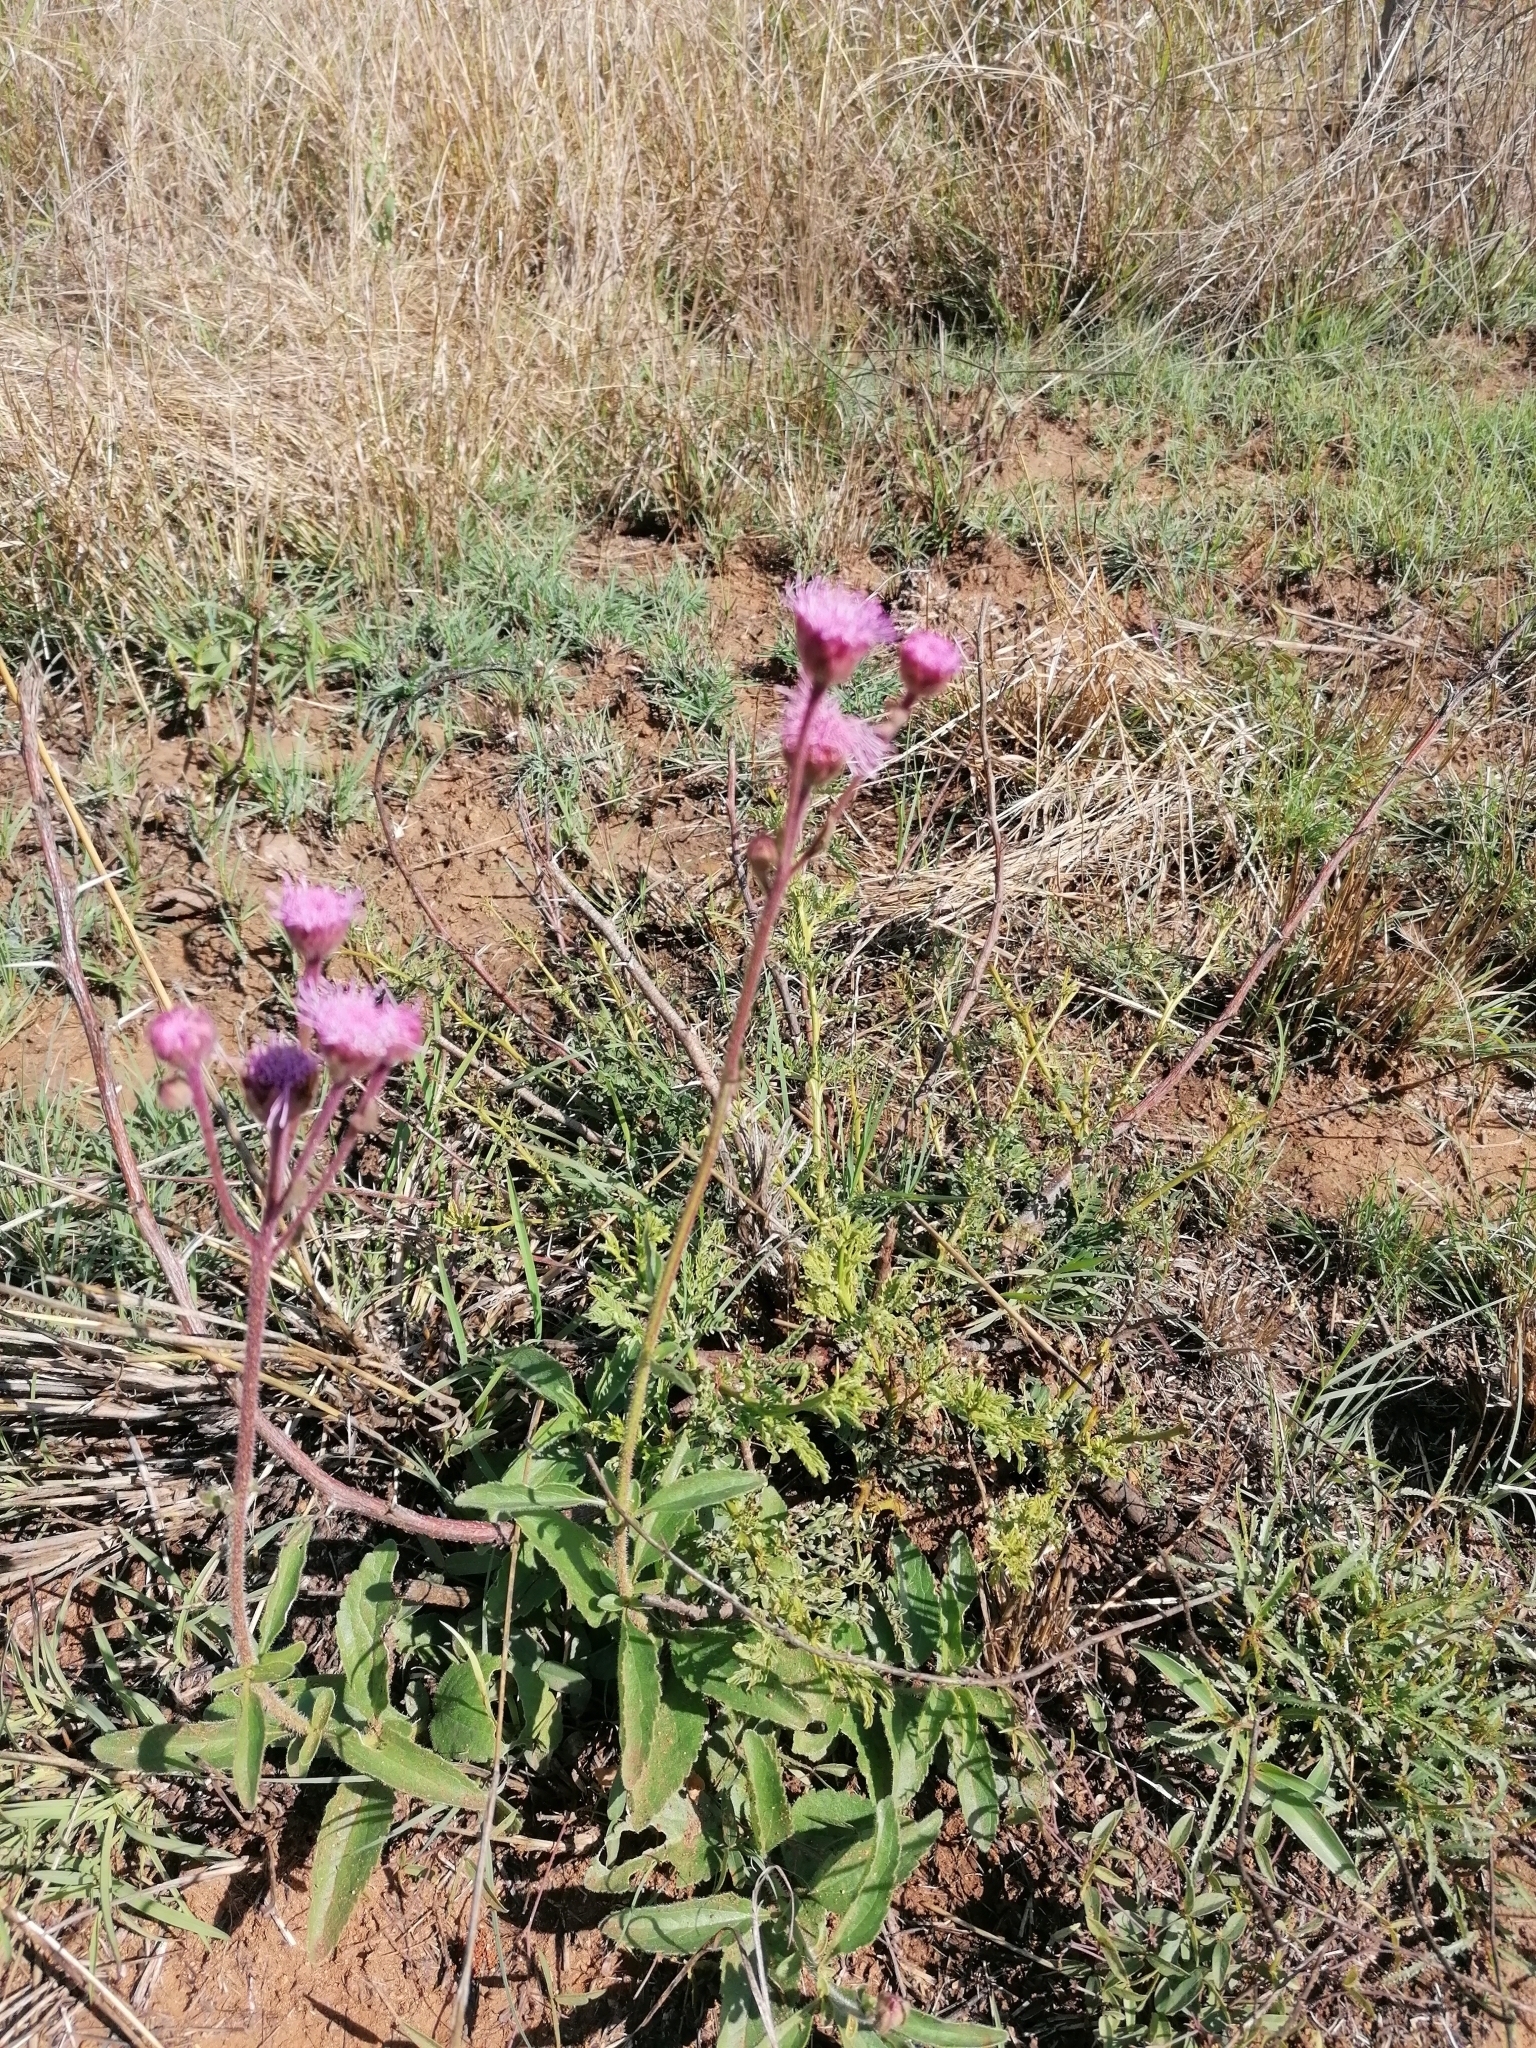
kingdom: Plantae
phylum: Tracheophyta
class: Magnoliopsida
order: Asterales
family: Asteraceae
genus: Campuloclinium
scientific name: Campuloclinium macrocephalum
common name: Pompomweed
